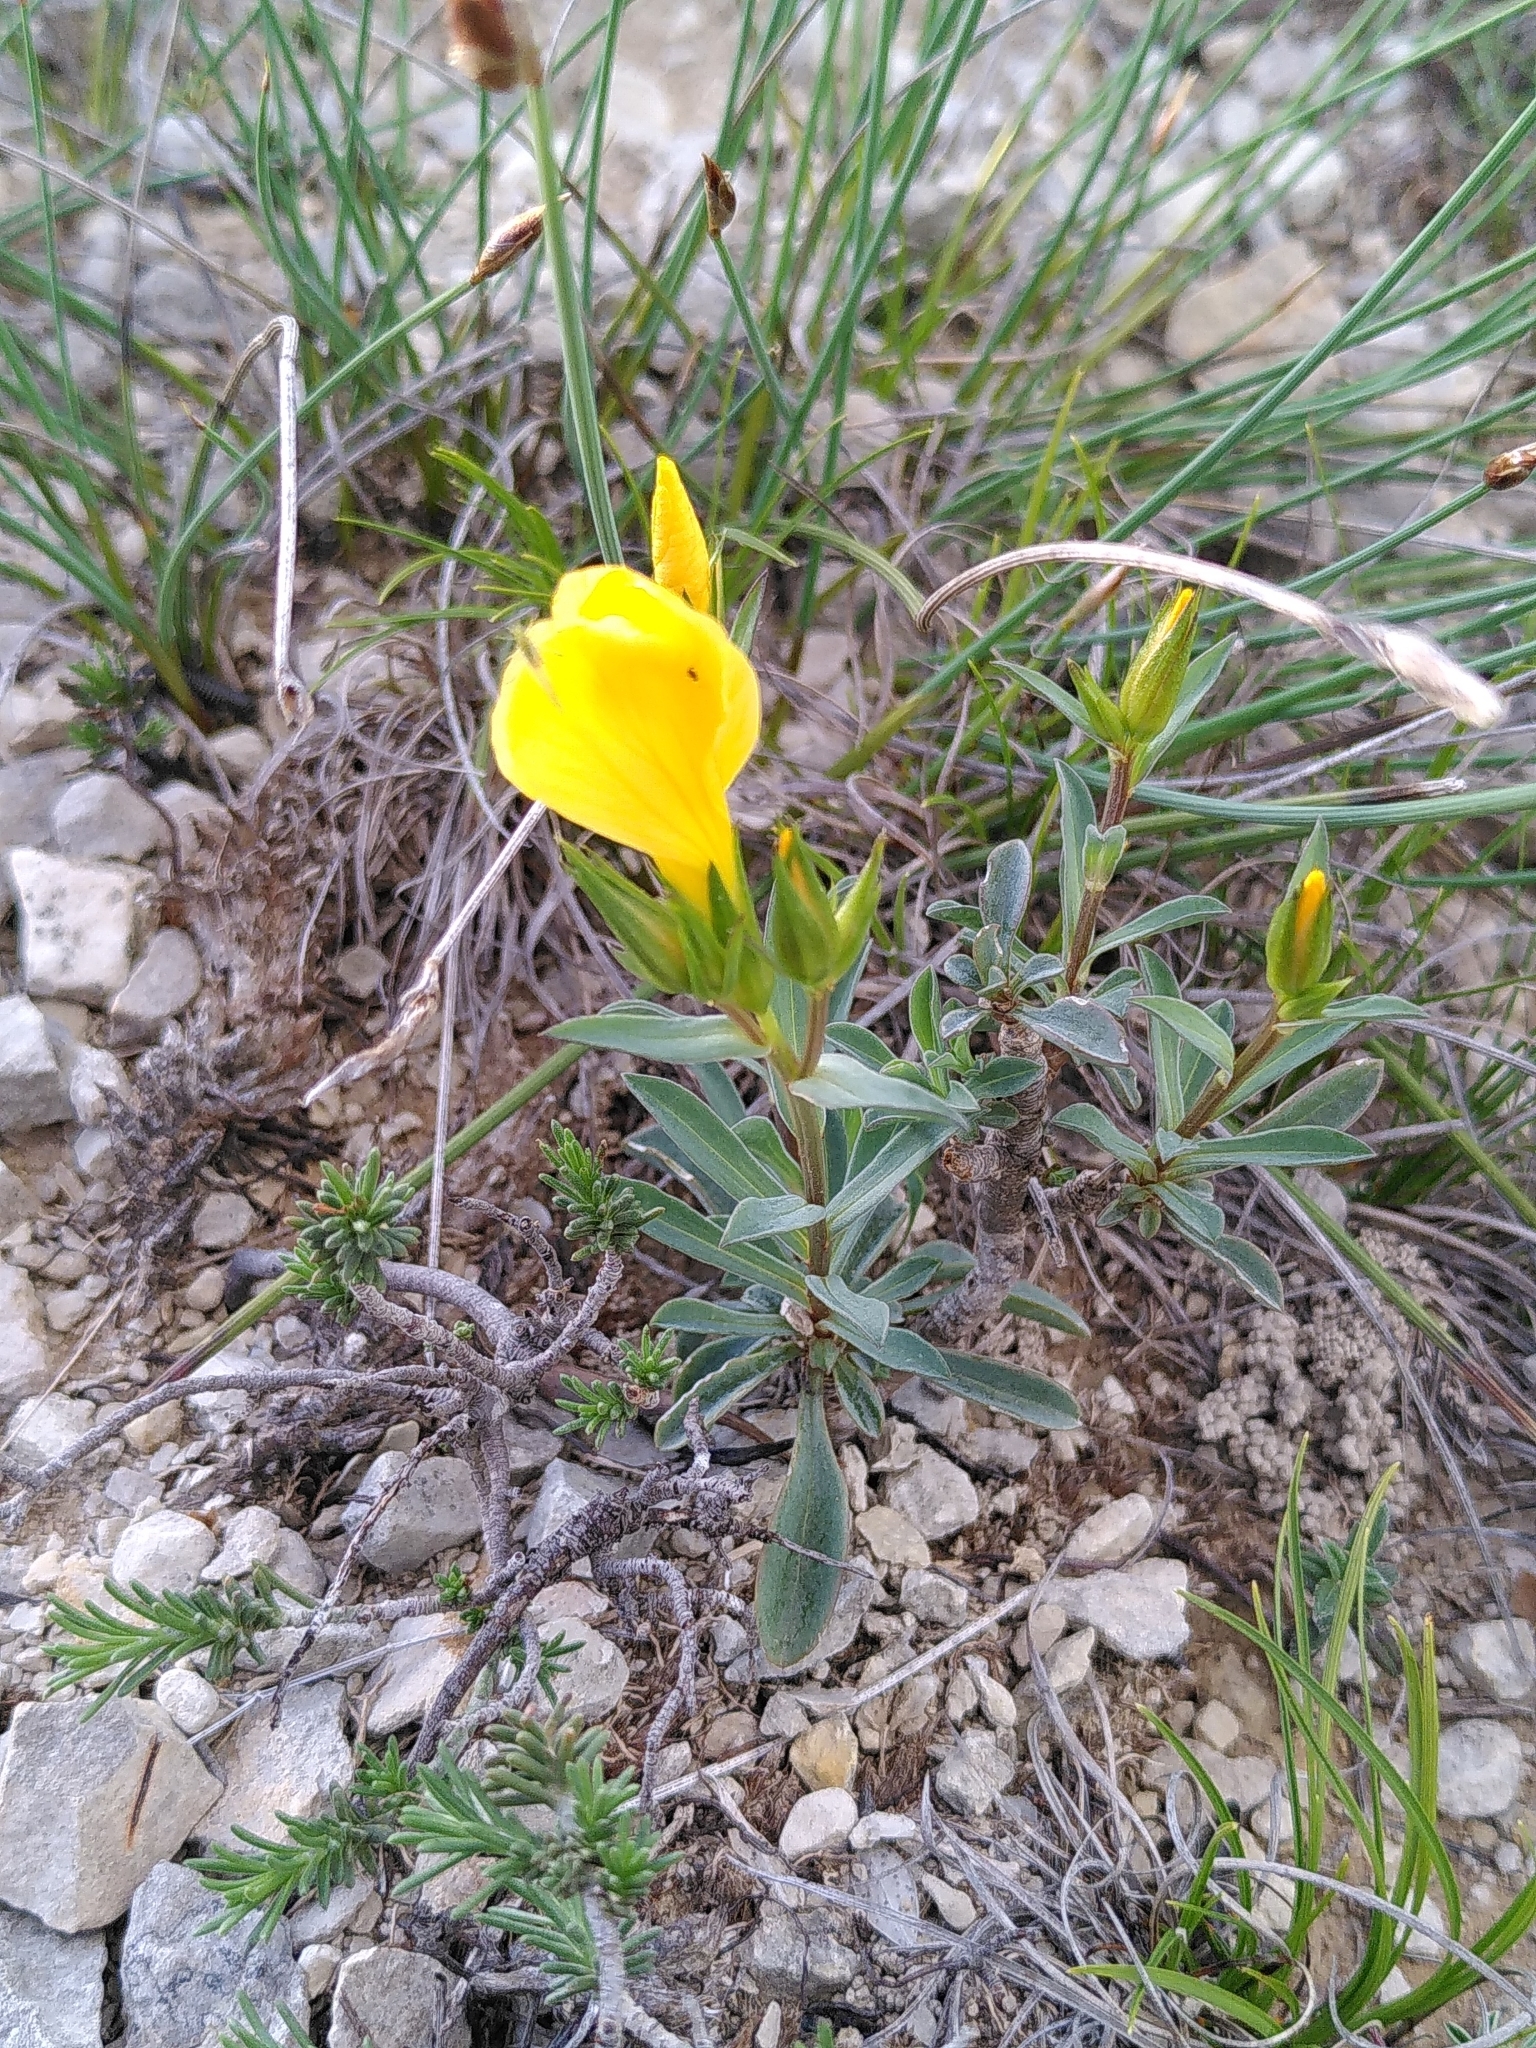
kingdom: Plantae
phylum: Tracheophyta
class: Magnoliopsida
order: Malpighiales
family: Linaceae
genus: Linum
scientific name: Linum campanulatum
